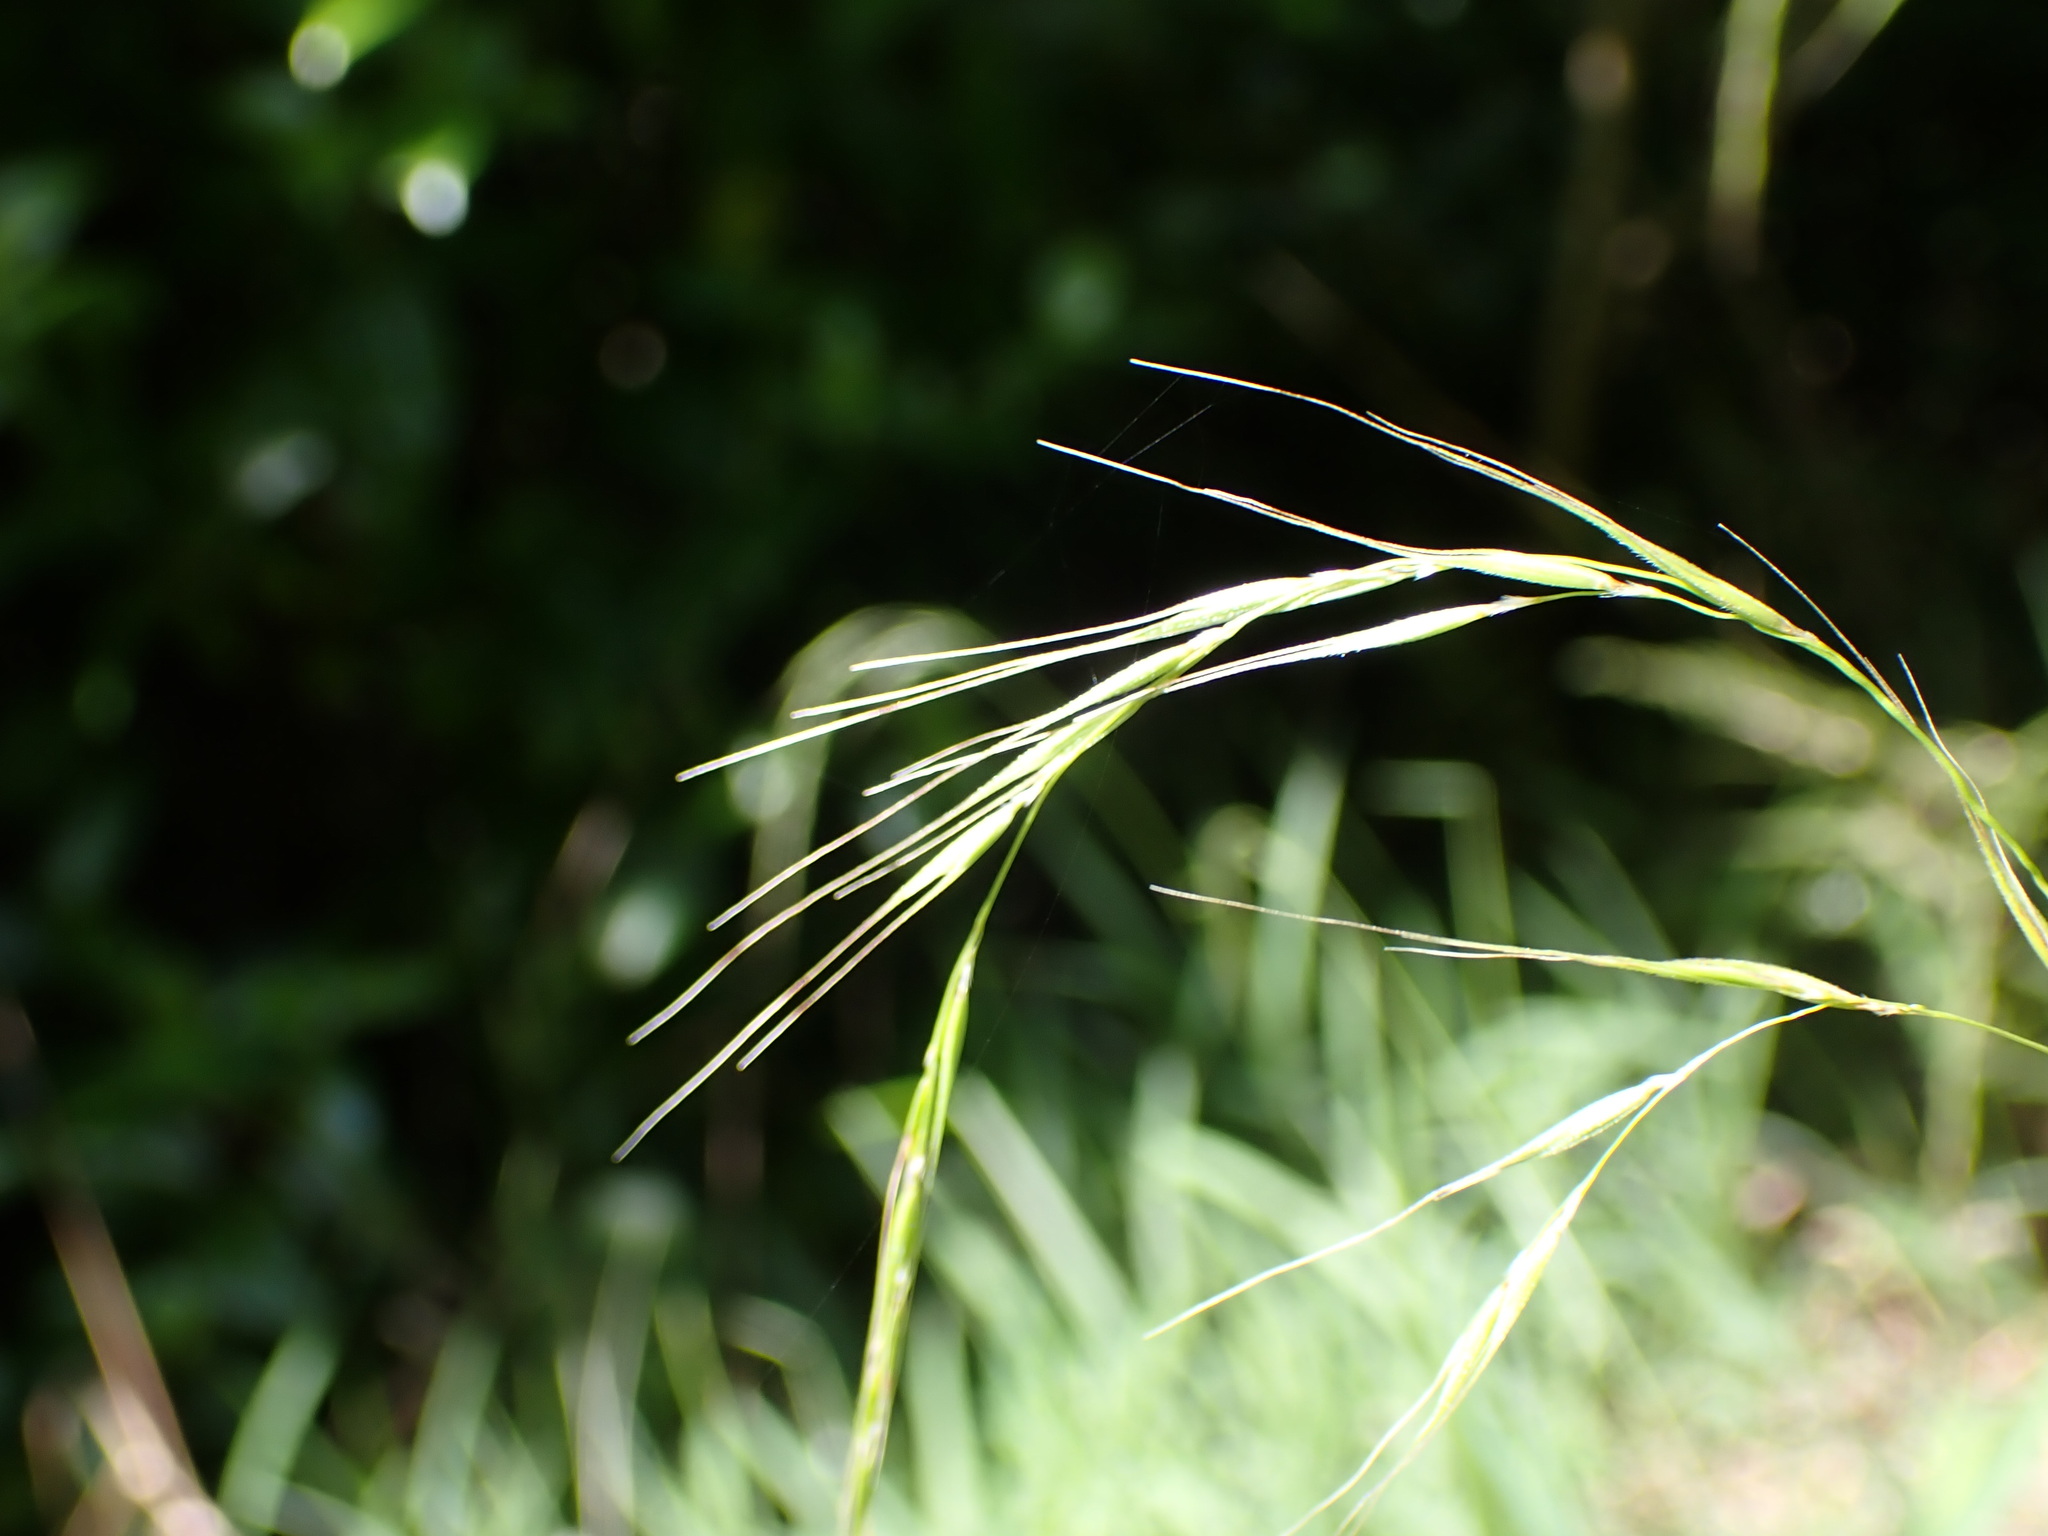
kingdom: Plantae
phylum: Tracheophyta
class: Liliopsida
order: Poales
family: Poaceae
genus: Microlaena
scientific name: Microlaena stipoides
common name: Meadow ricegrass
